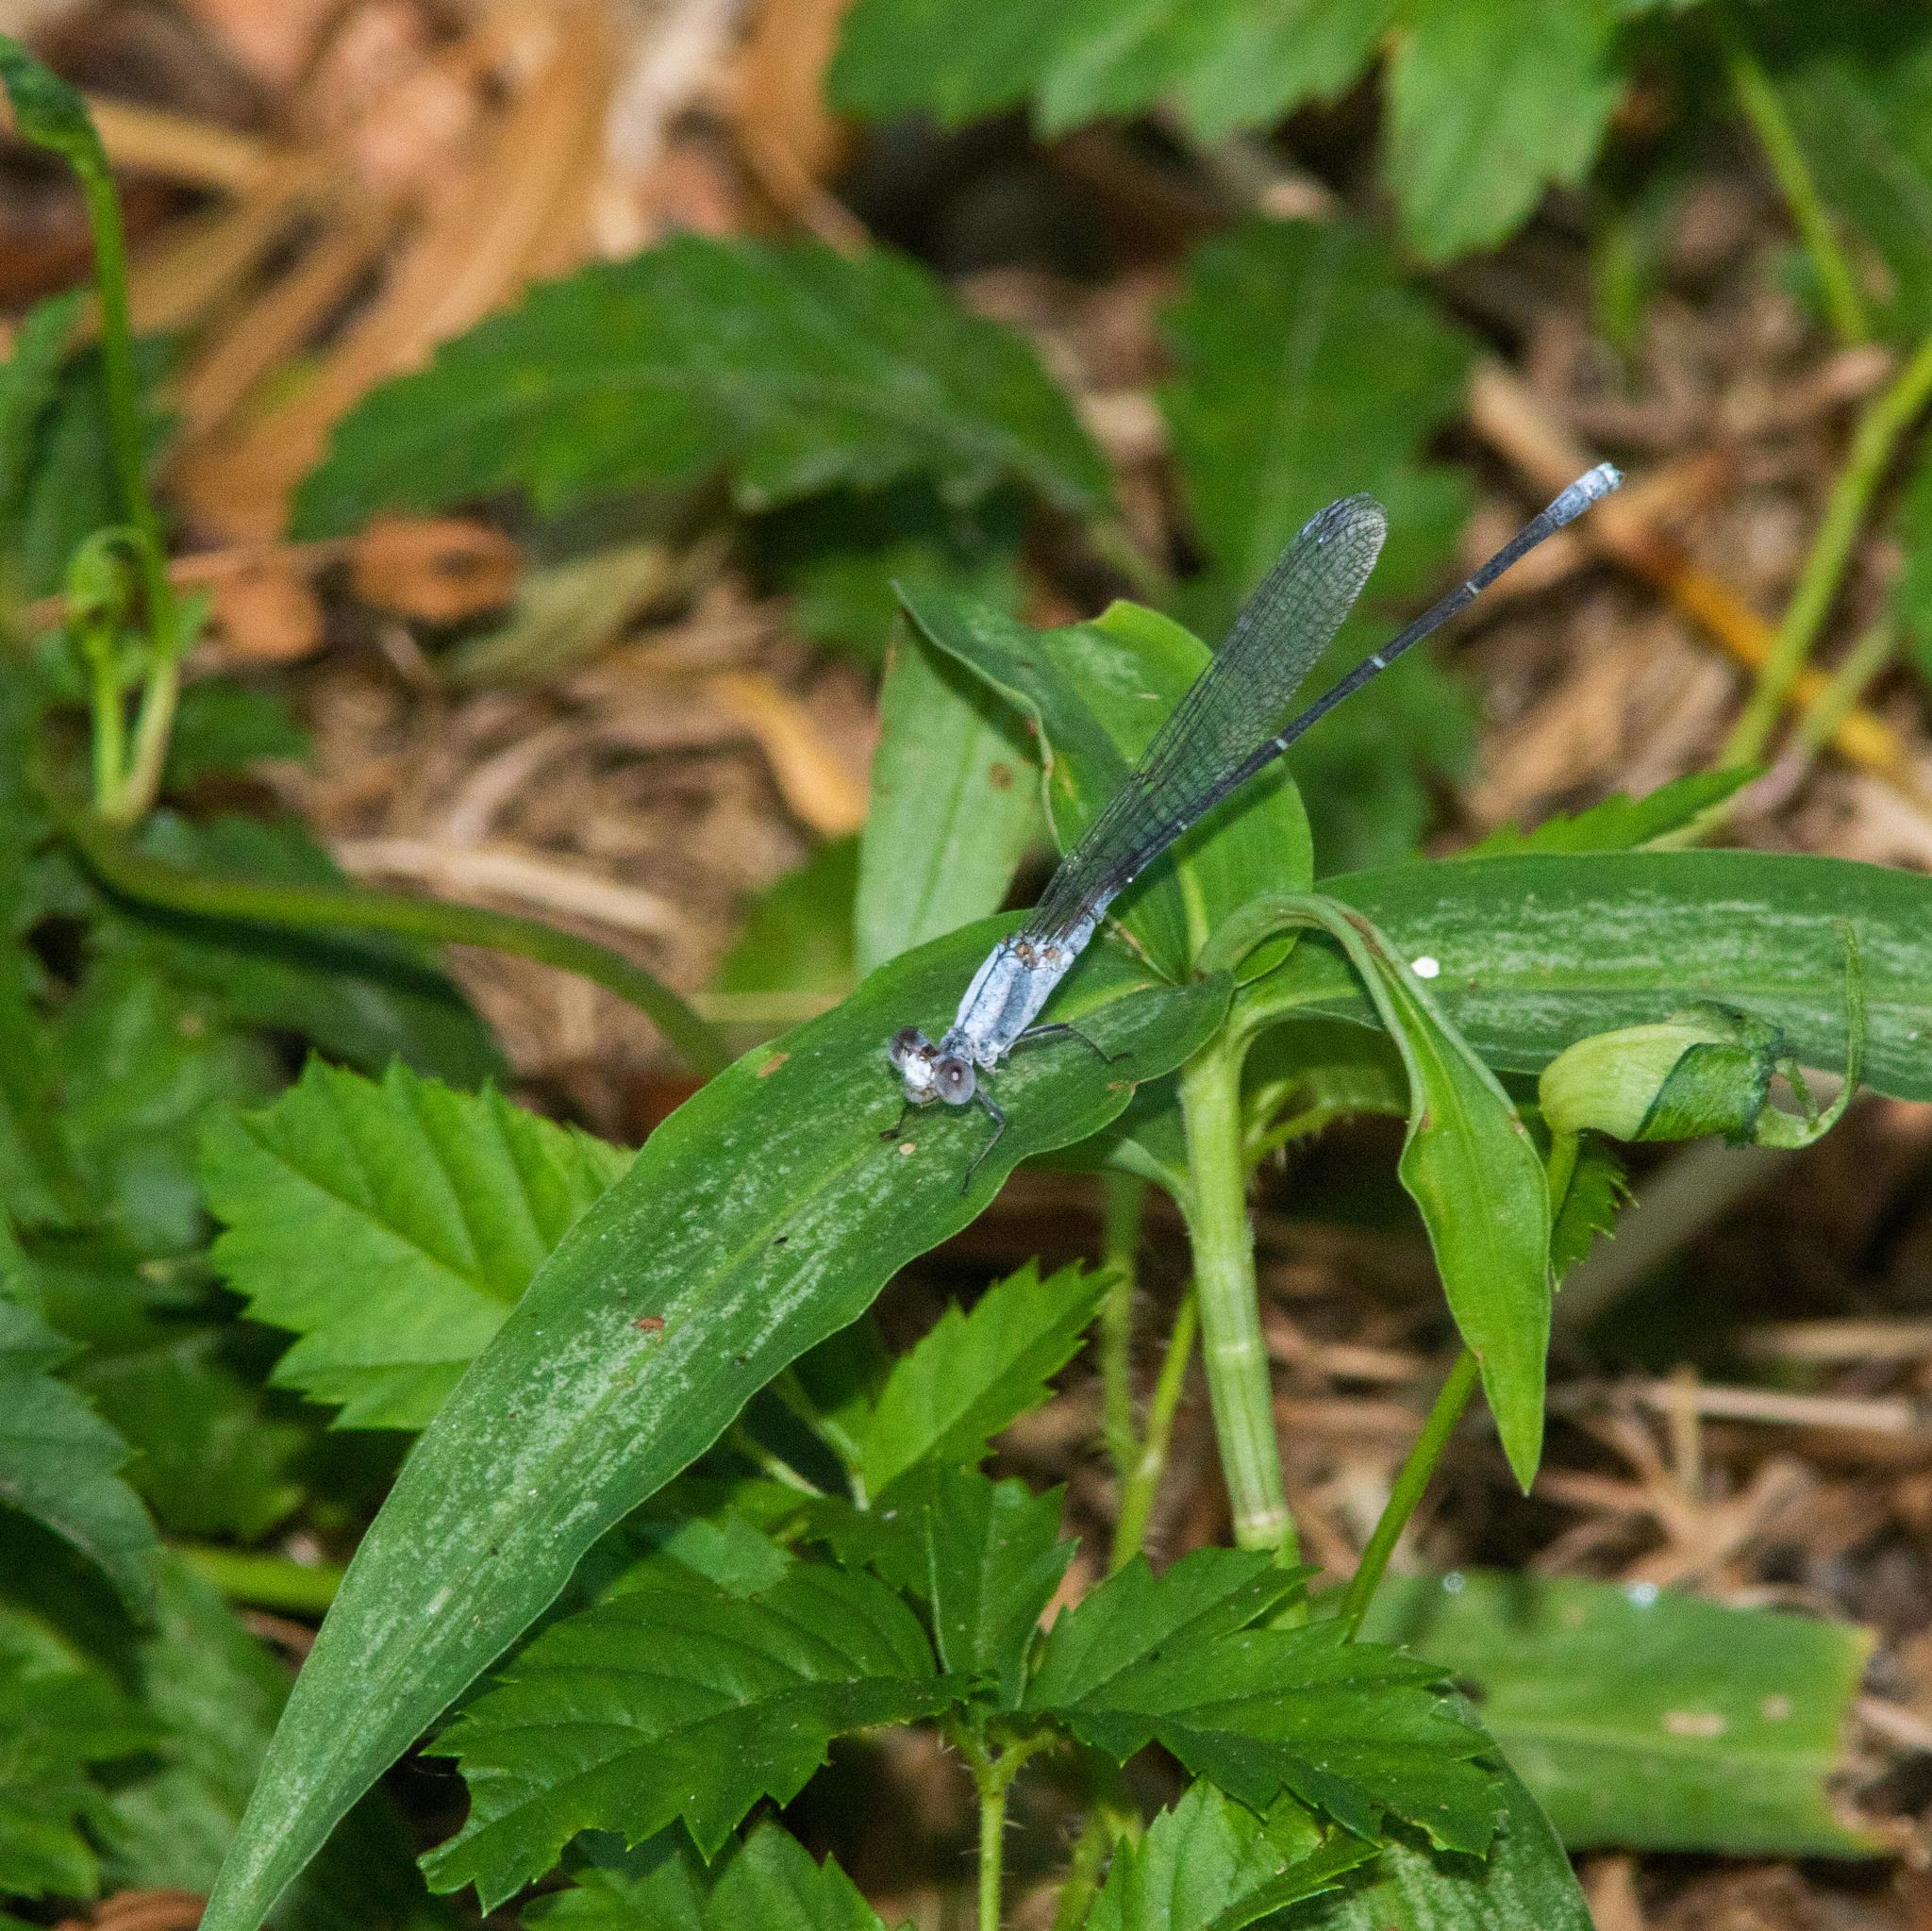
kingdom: Animalia
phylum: Arthropoda
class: Insecta
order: Odonata
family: Coenagrionidae
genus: Argia
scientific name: Argia moesta
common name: Powdered dancer
